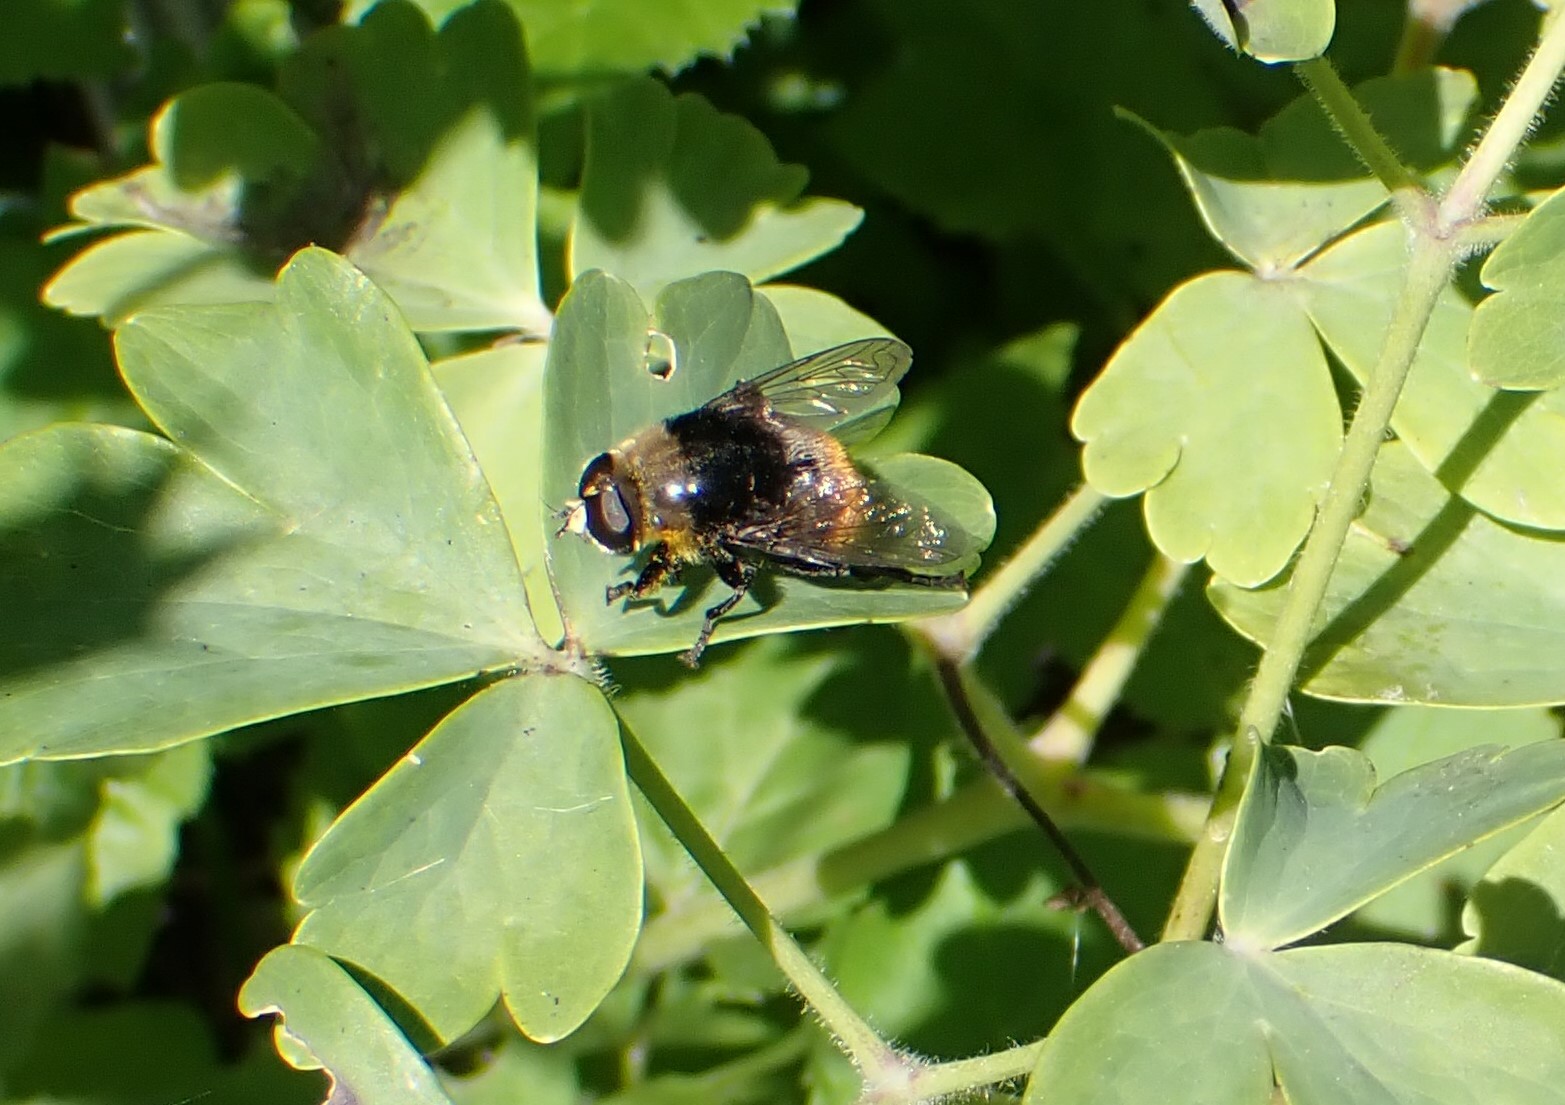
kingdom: Animalia
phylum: Arthropoda
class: Insecta
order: Diptera
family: Syrphidae
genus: Merodon
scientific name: Merodon equestris
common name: Greater bulb-fly
